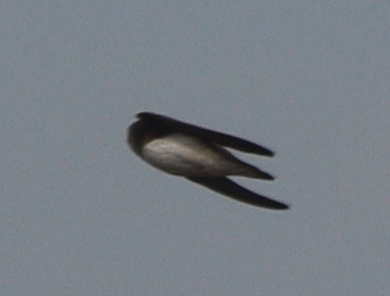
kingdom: Animalia
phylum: Chordata
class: Aves
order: Passeriformes
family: Hirundinidae
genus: Riparia
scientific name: Riparia riparia
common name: Sand martin
